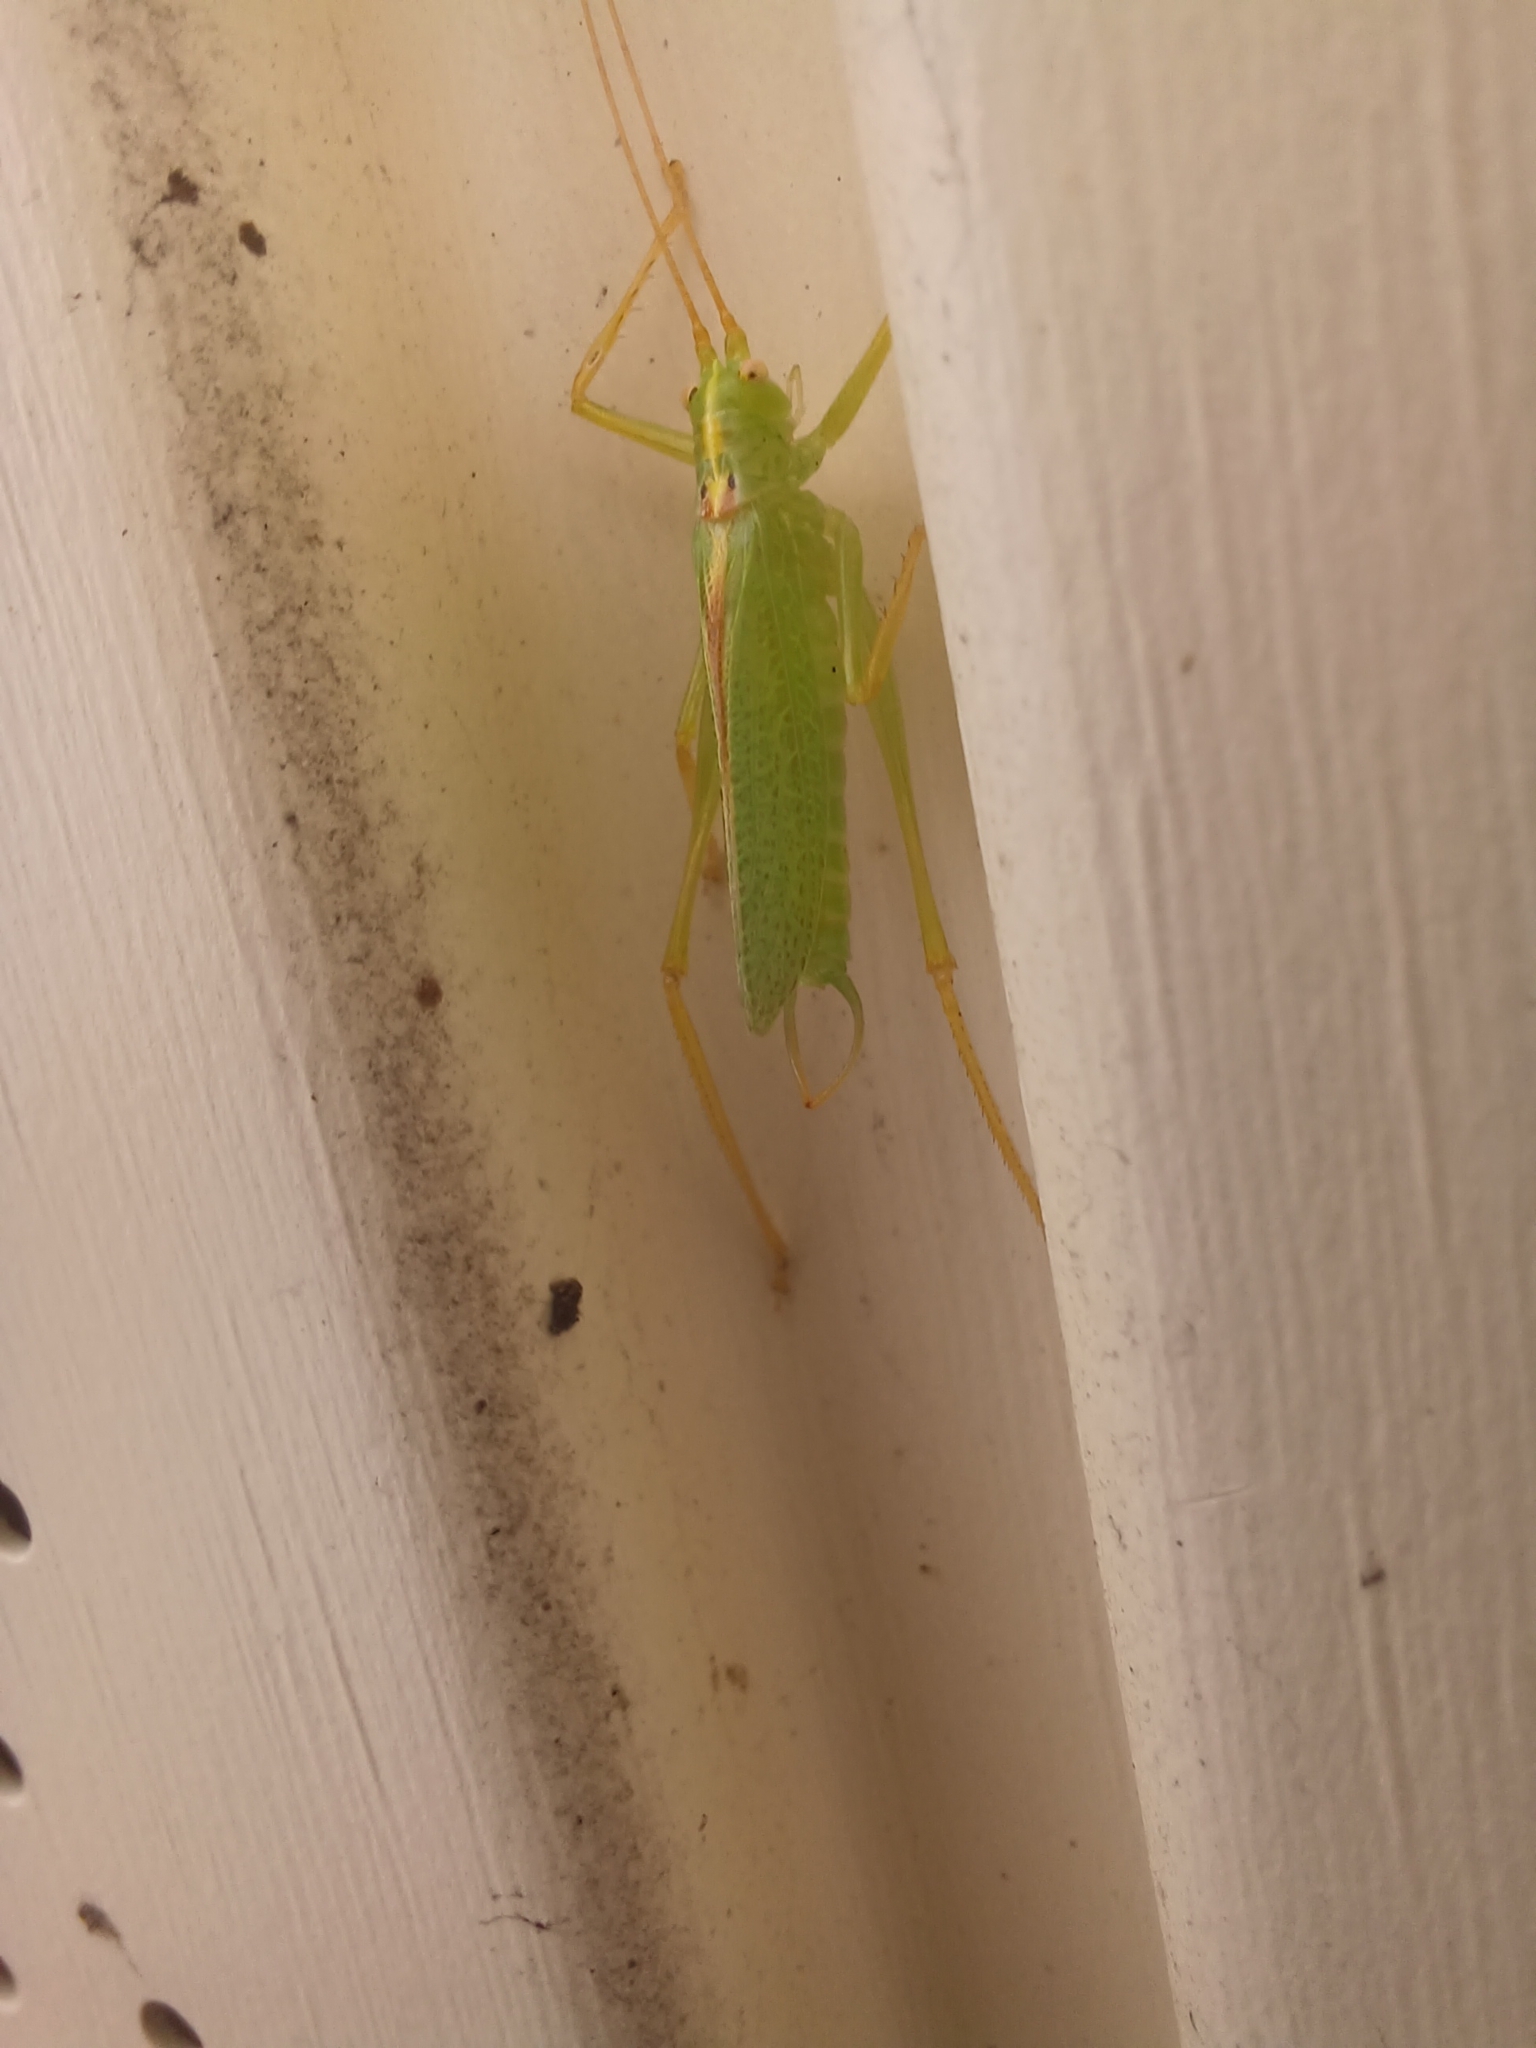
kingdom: Animalia
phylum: Arthropoda
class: Insecta
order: Orthoptera
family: Tettigoniidae
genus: Meconema
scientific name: Meconema thalassinum
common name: Oak bush-cricket
